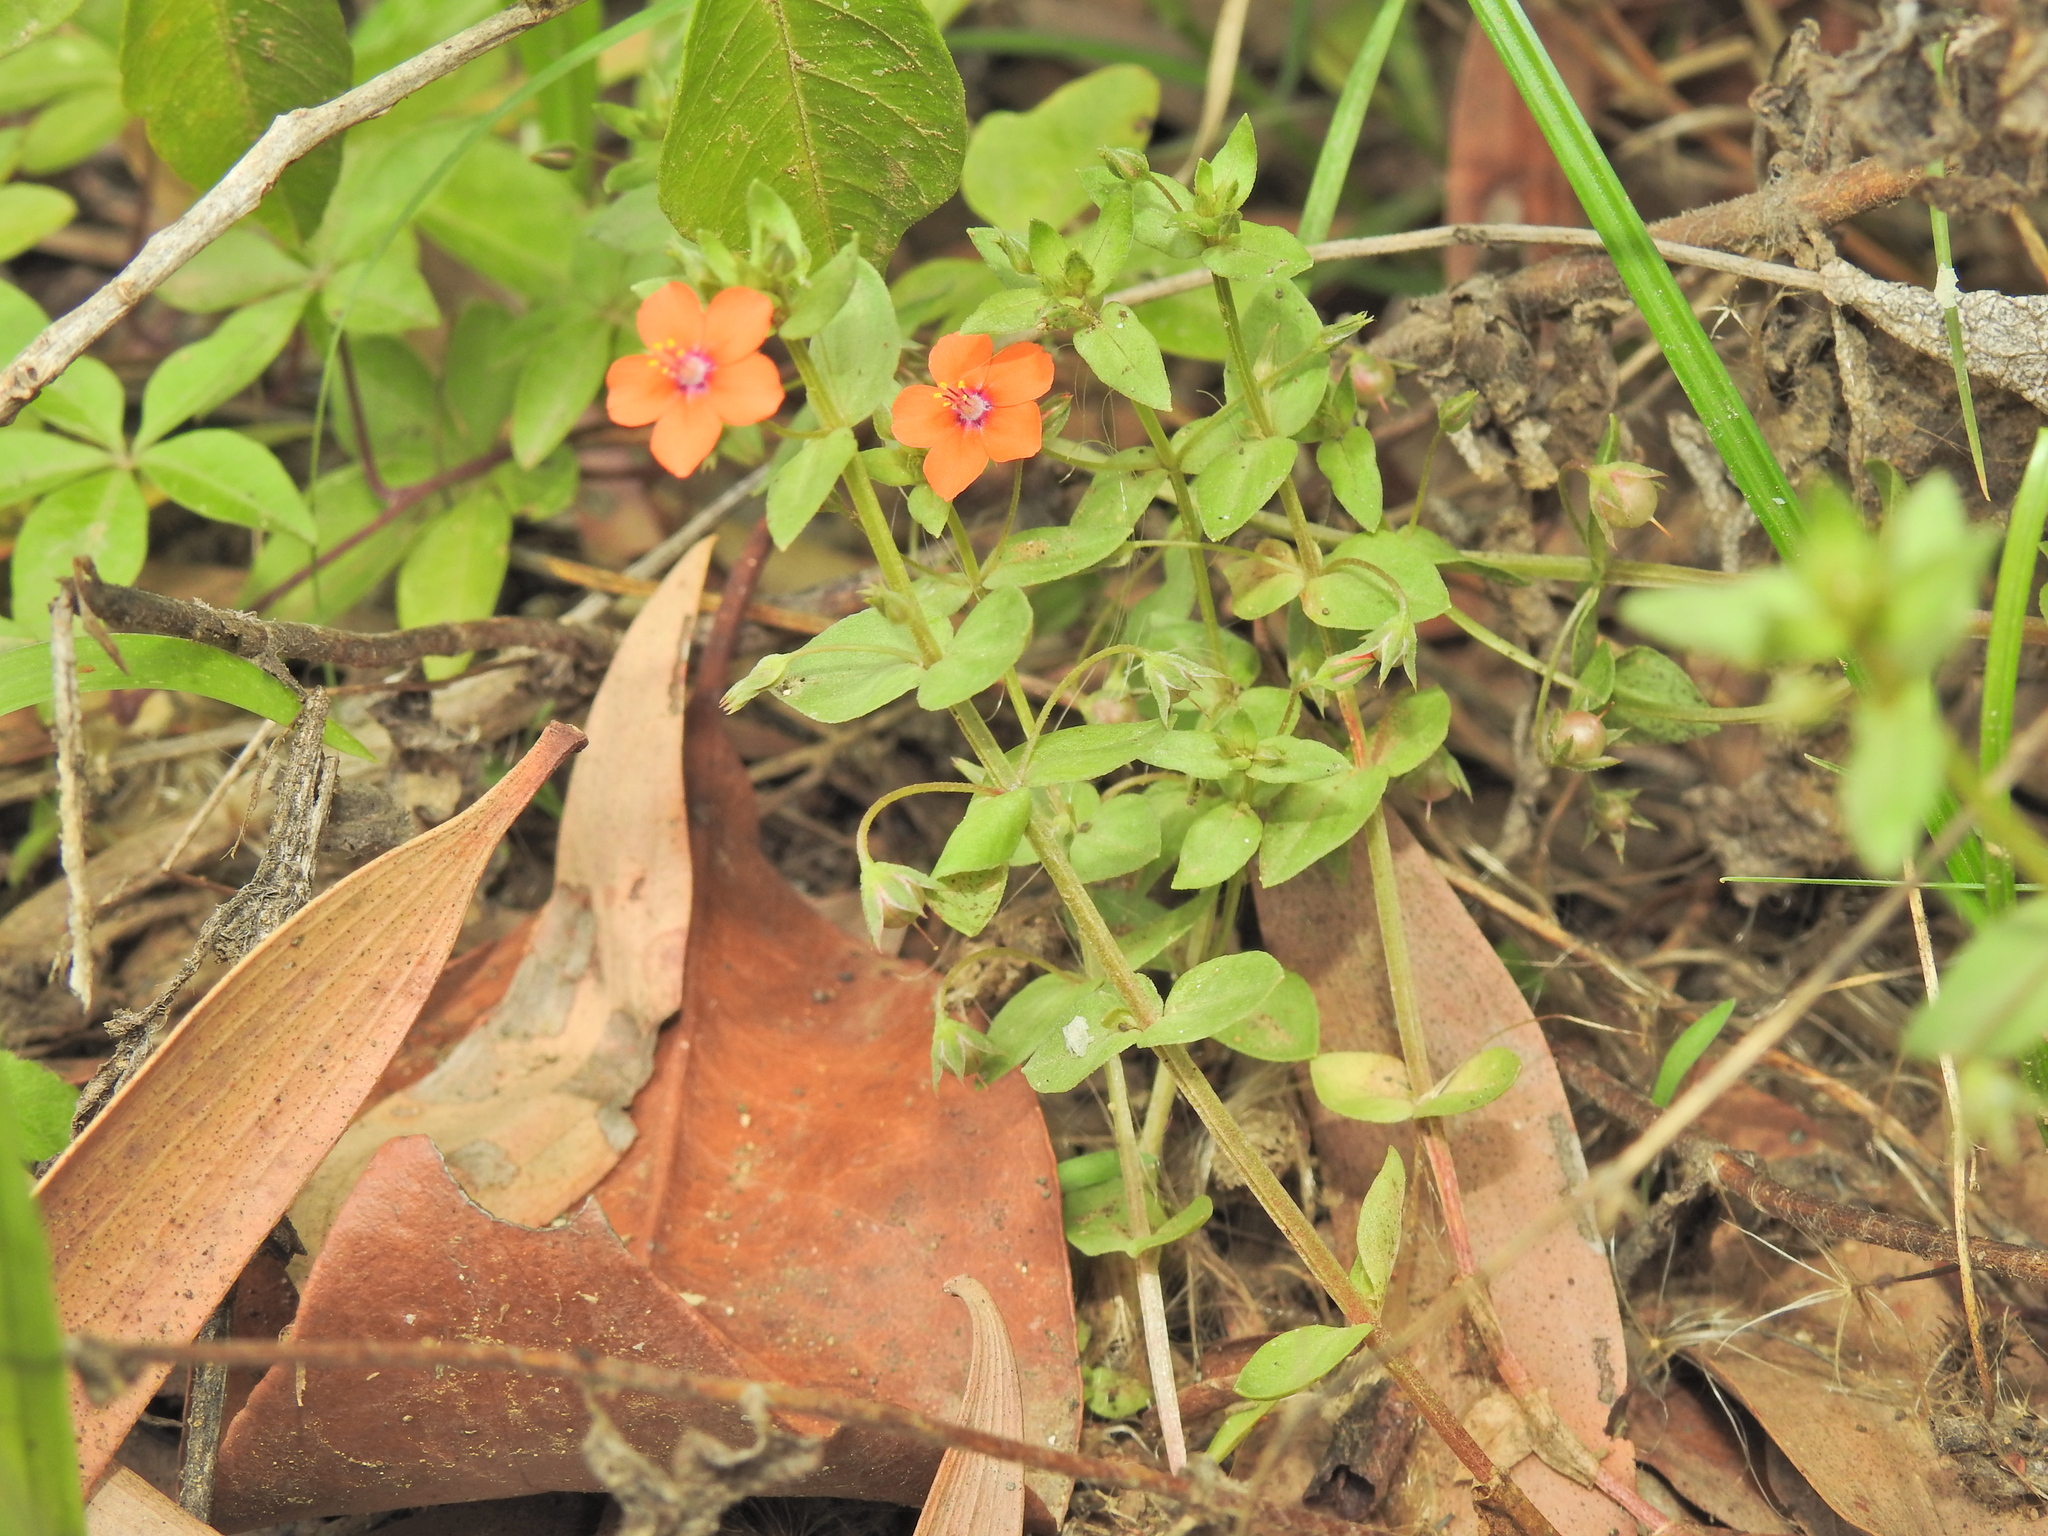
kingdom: Plantae
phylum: Tracheophyta
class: Magnoliopsida
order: Ericales
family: Primulaceae
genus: Lysimachia
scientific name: Lysimachia arvensis
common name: Scarlet pimpernel
